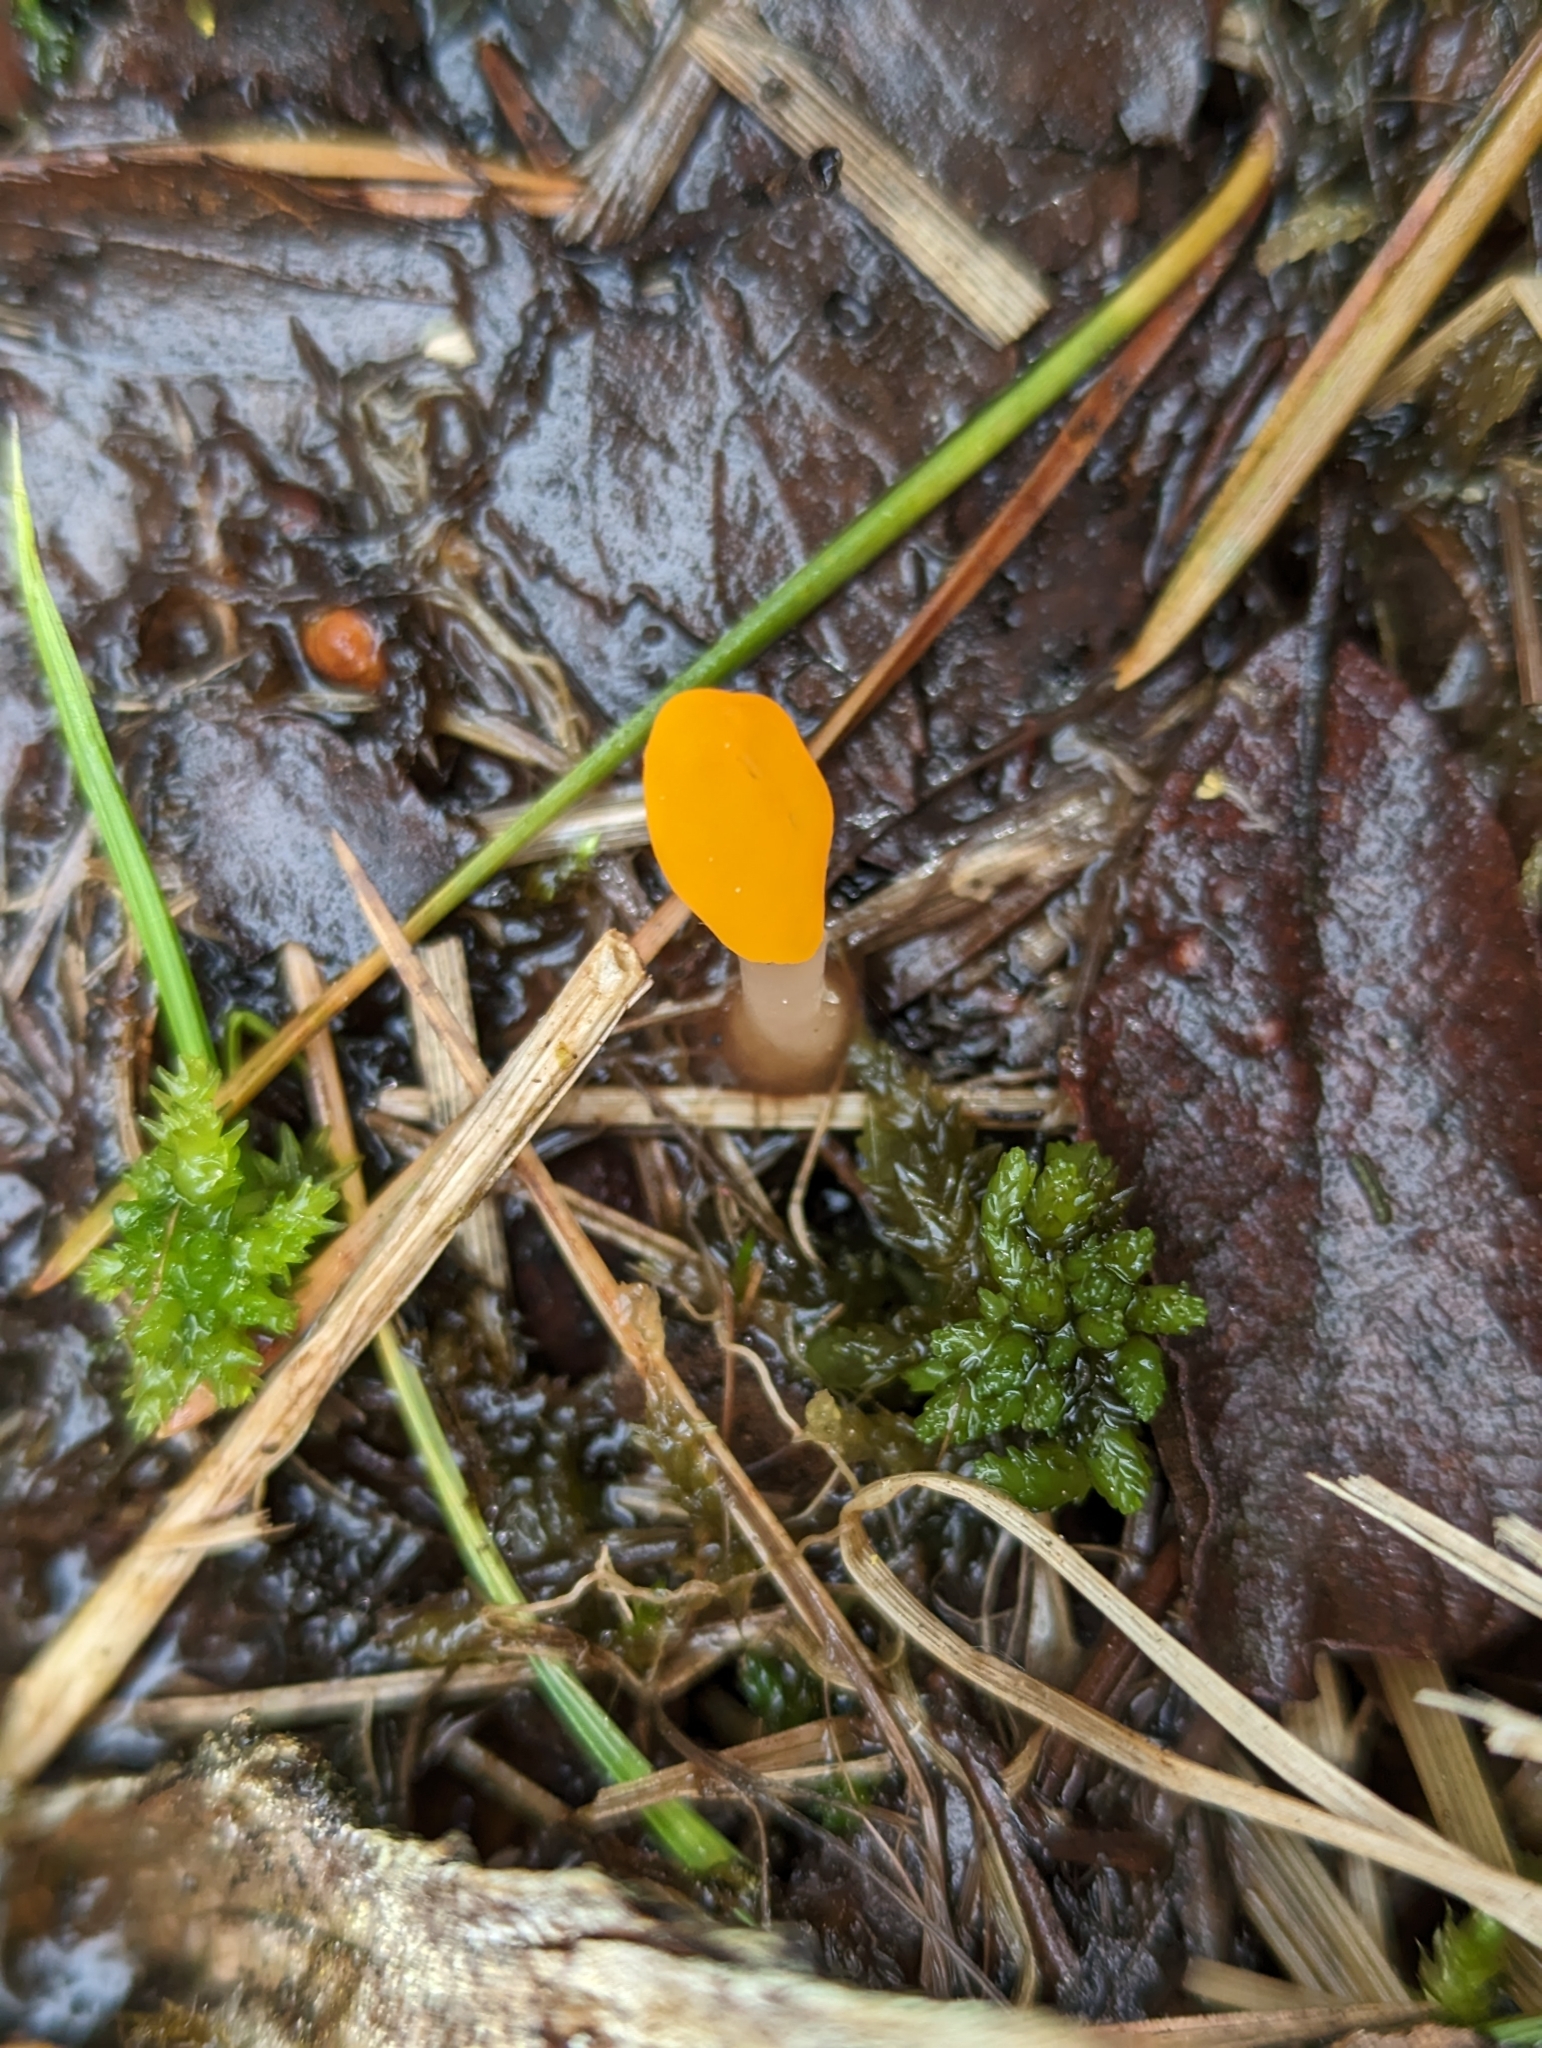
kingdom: Fungi
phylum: Ascomycota
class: Leotiomycetes
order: Helotiales
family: Cenangiaceae
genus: Mitrula
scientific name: Mitrula paludosa
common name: Bog beacon
